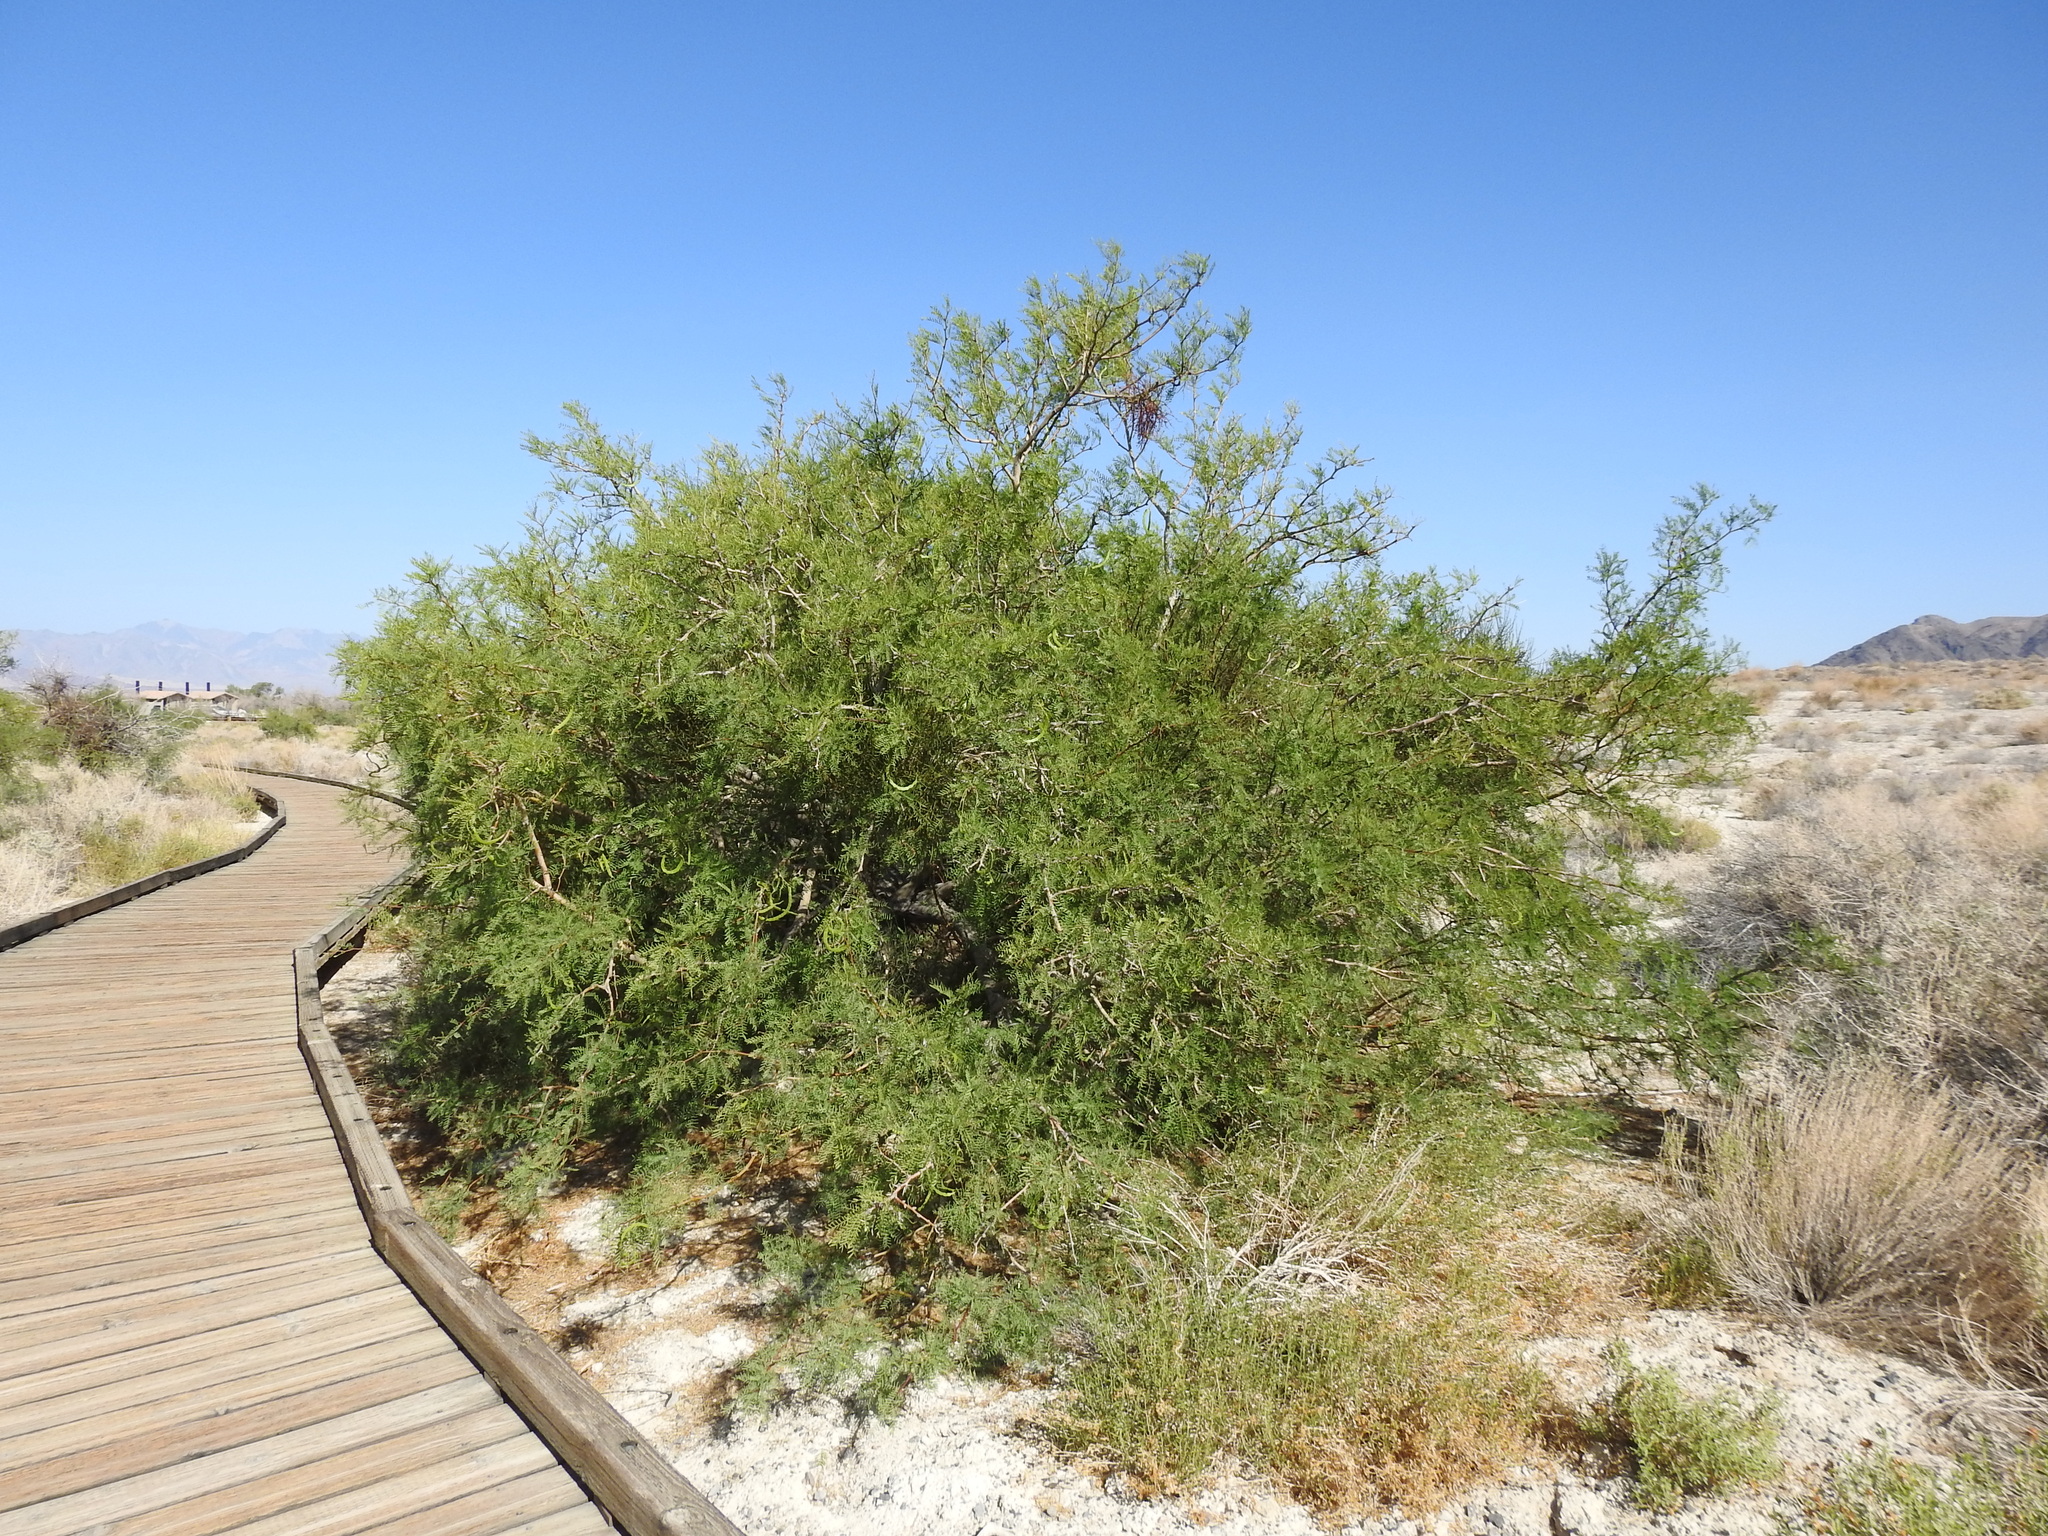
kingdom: Plantae
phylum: Tracheophyta
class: Magnoliopsida
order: Fabales
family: Fabaceae
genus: Prosopis
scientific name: Prosopis pubescens
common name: Screw-bean
